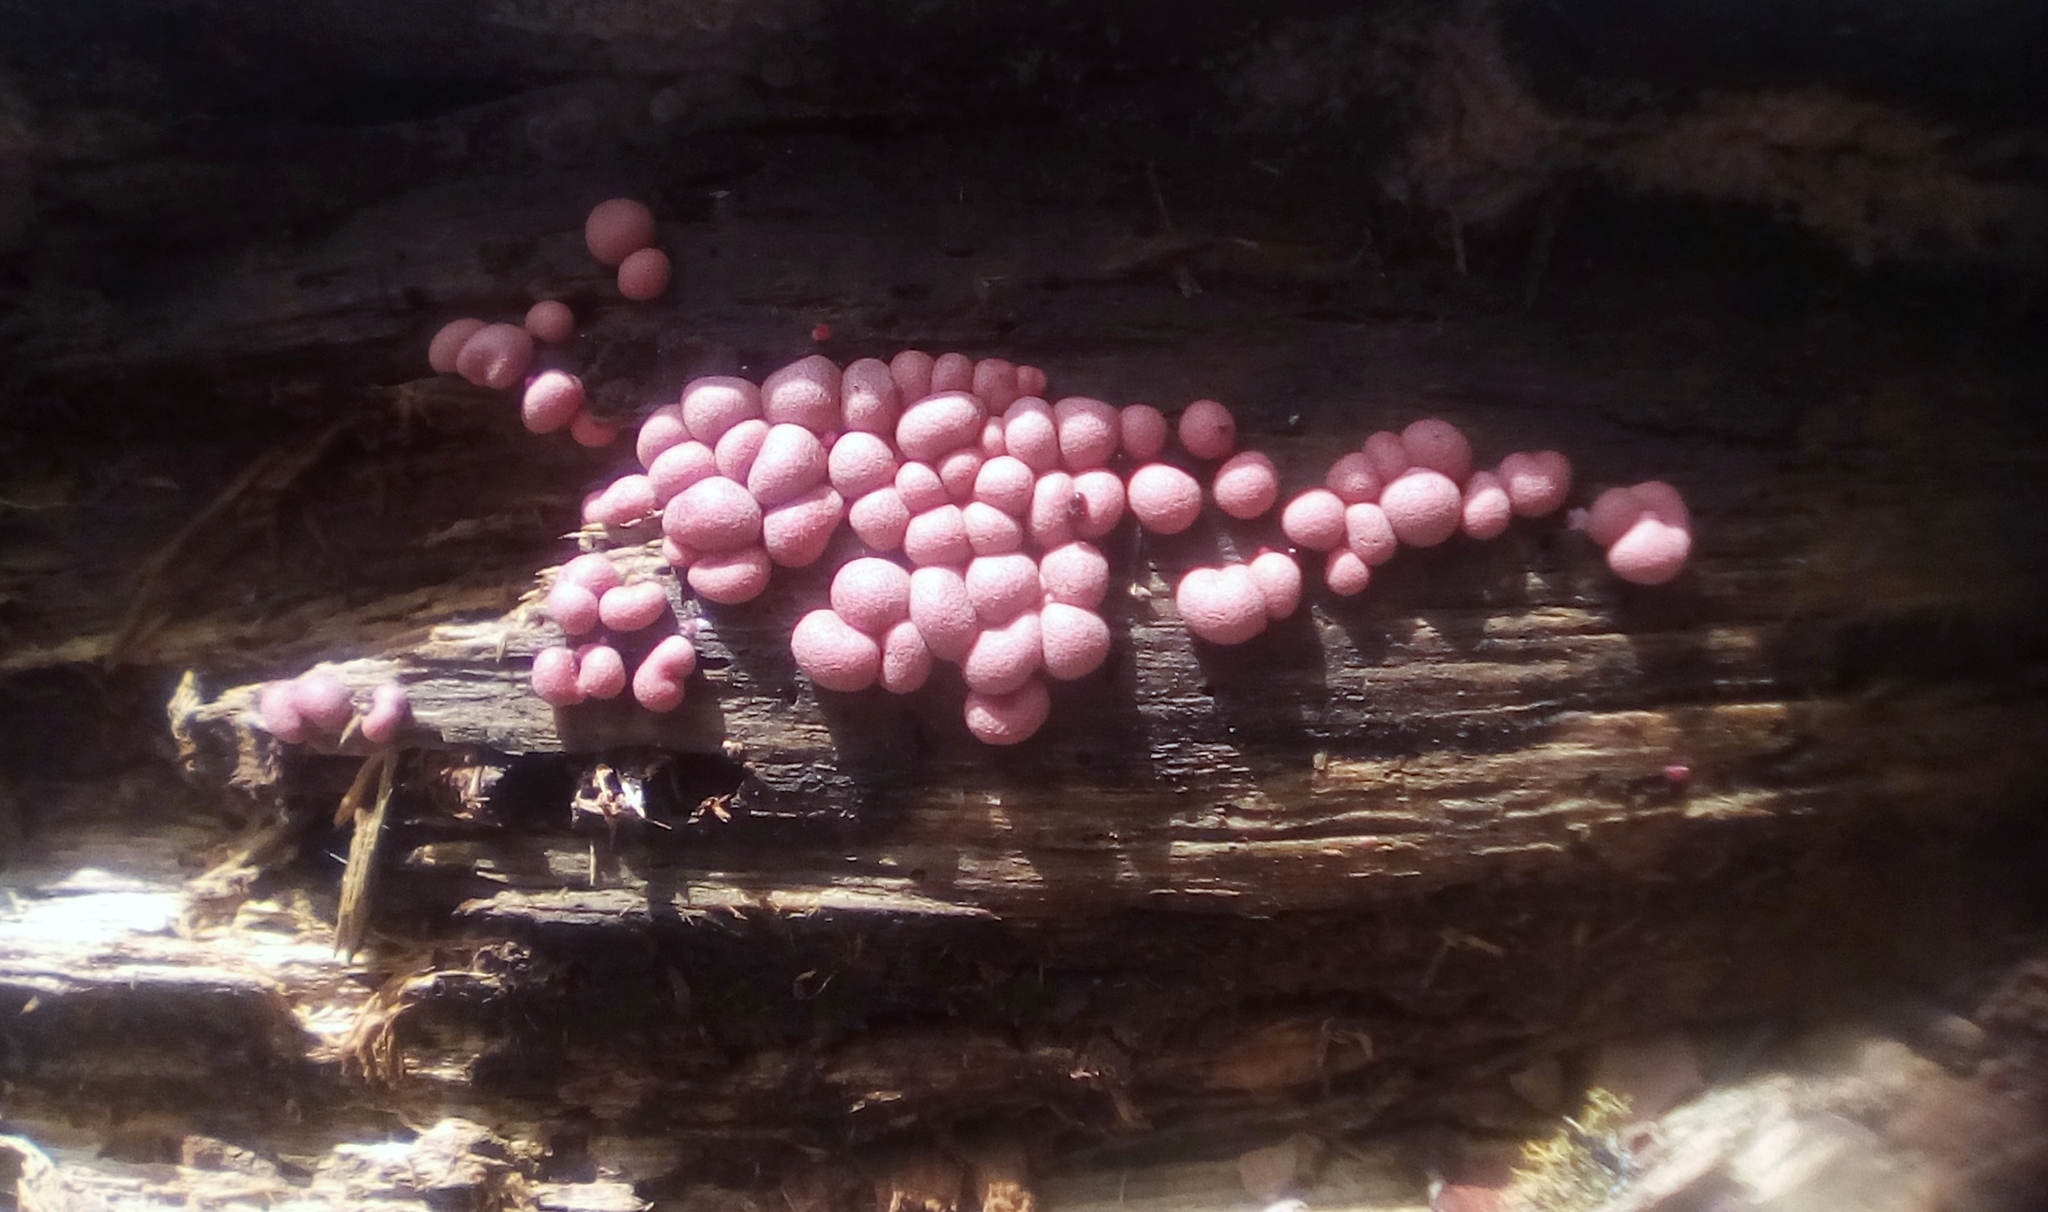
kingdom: Protozoa
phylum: Mycetozoa
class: Myxomycetes
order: Cribrariales
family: Tubiferaceae
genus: Lycogala
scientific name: Lycogala epidendrum
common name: Wolf's milk
